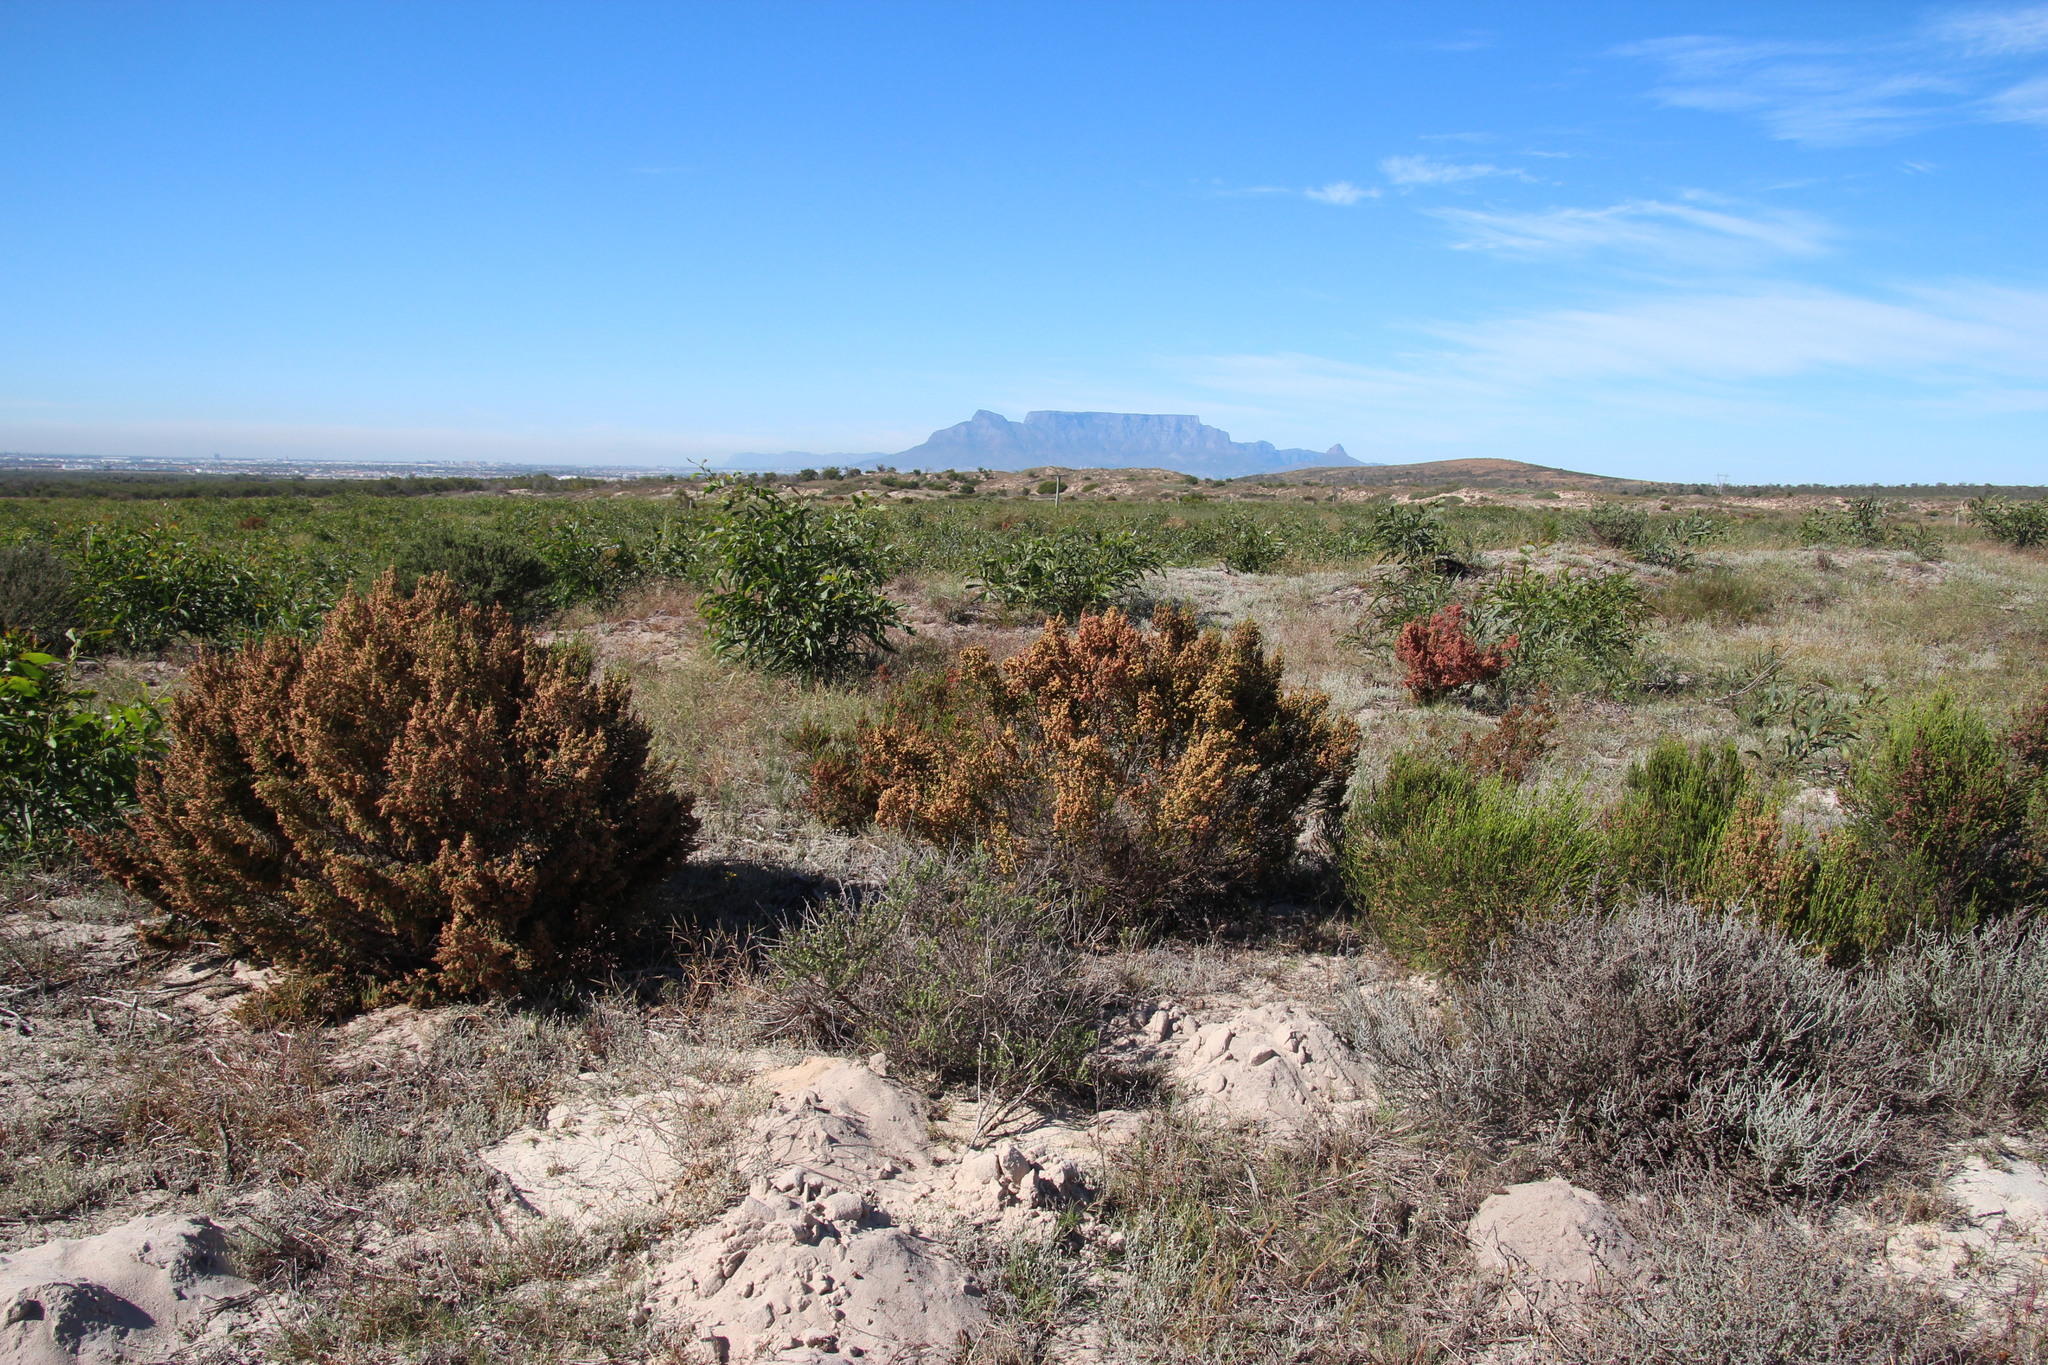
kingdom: Plantae
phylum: Tracheophyta
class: Magnoliopsida
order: Malvales
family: Thymelaeaceae
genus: Passerina
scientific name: Passerina corymbosa
